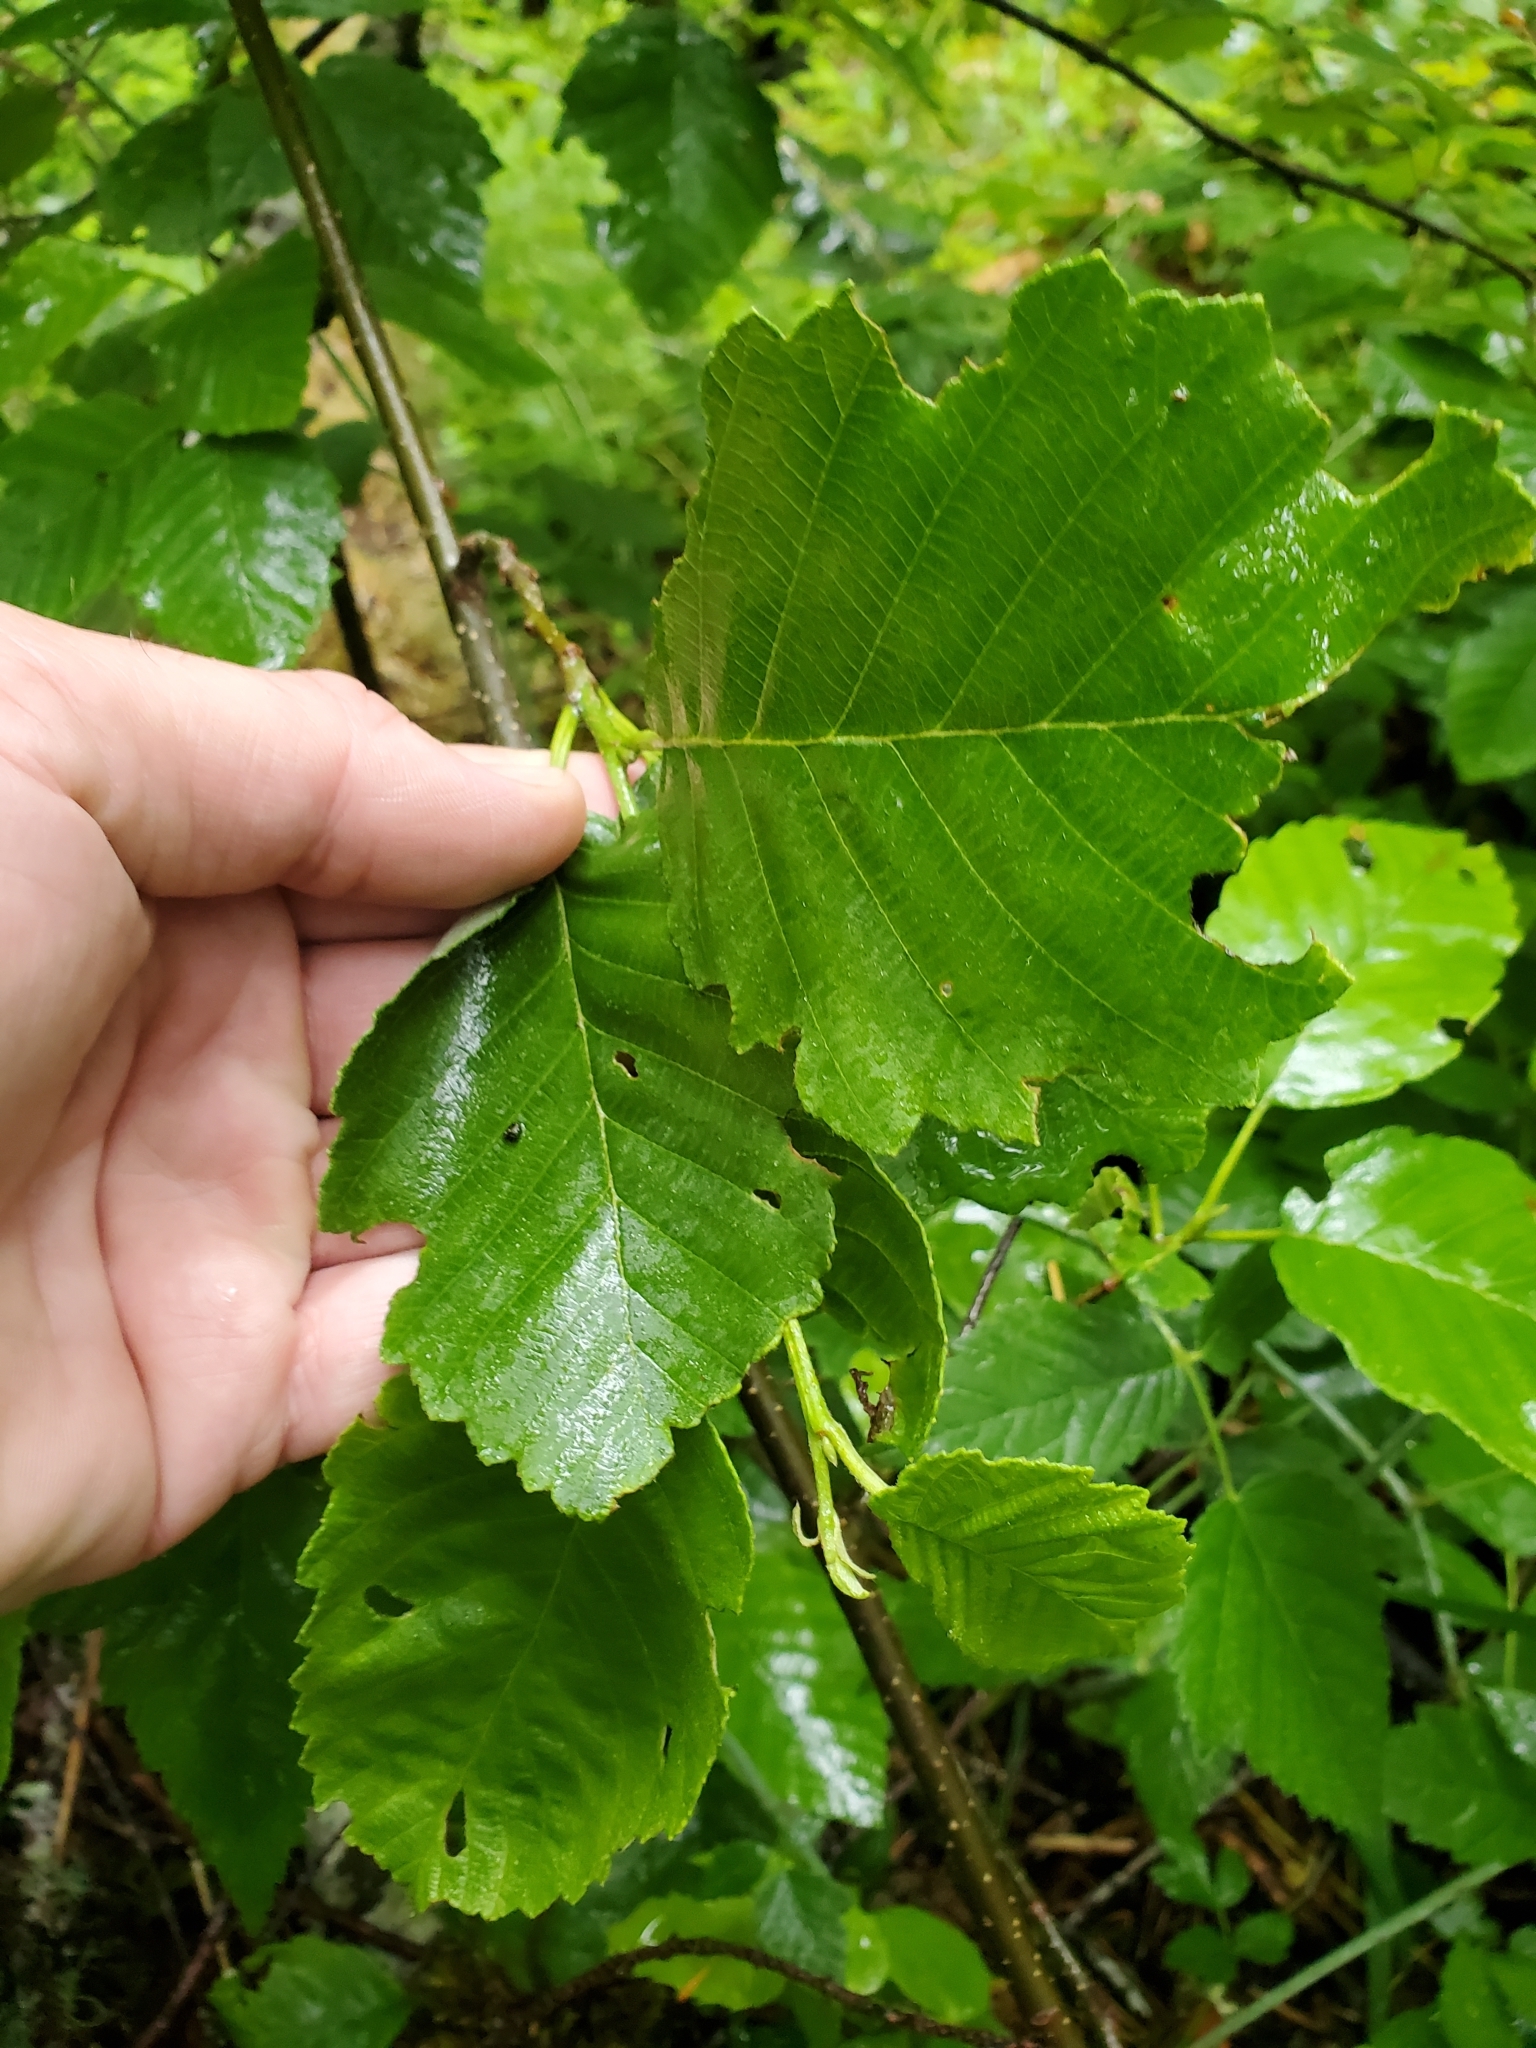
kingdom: Plantae
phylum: Tracheophyta
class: Magnoliopsida
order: Fagales
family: Betulaceae
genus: Alnus
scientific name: Alnus rubra
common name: Red alder
